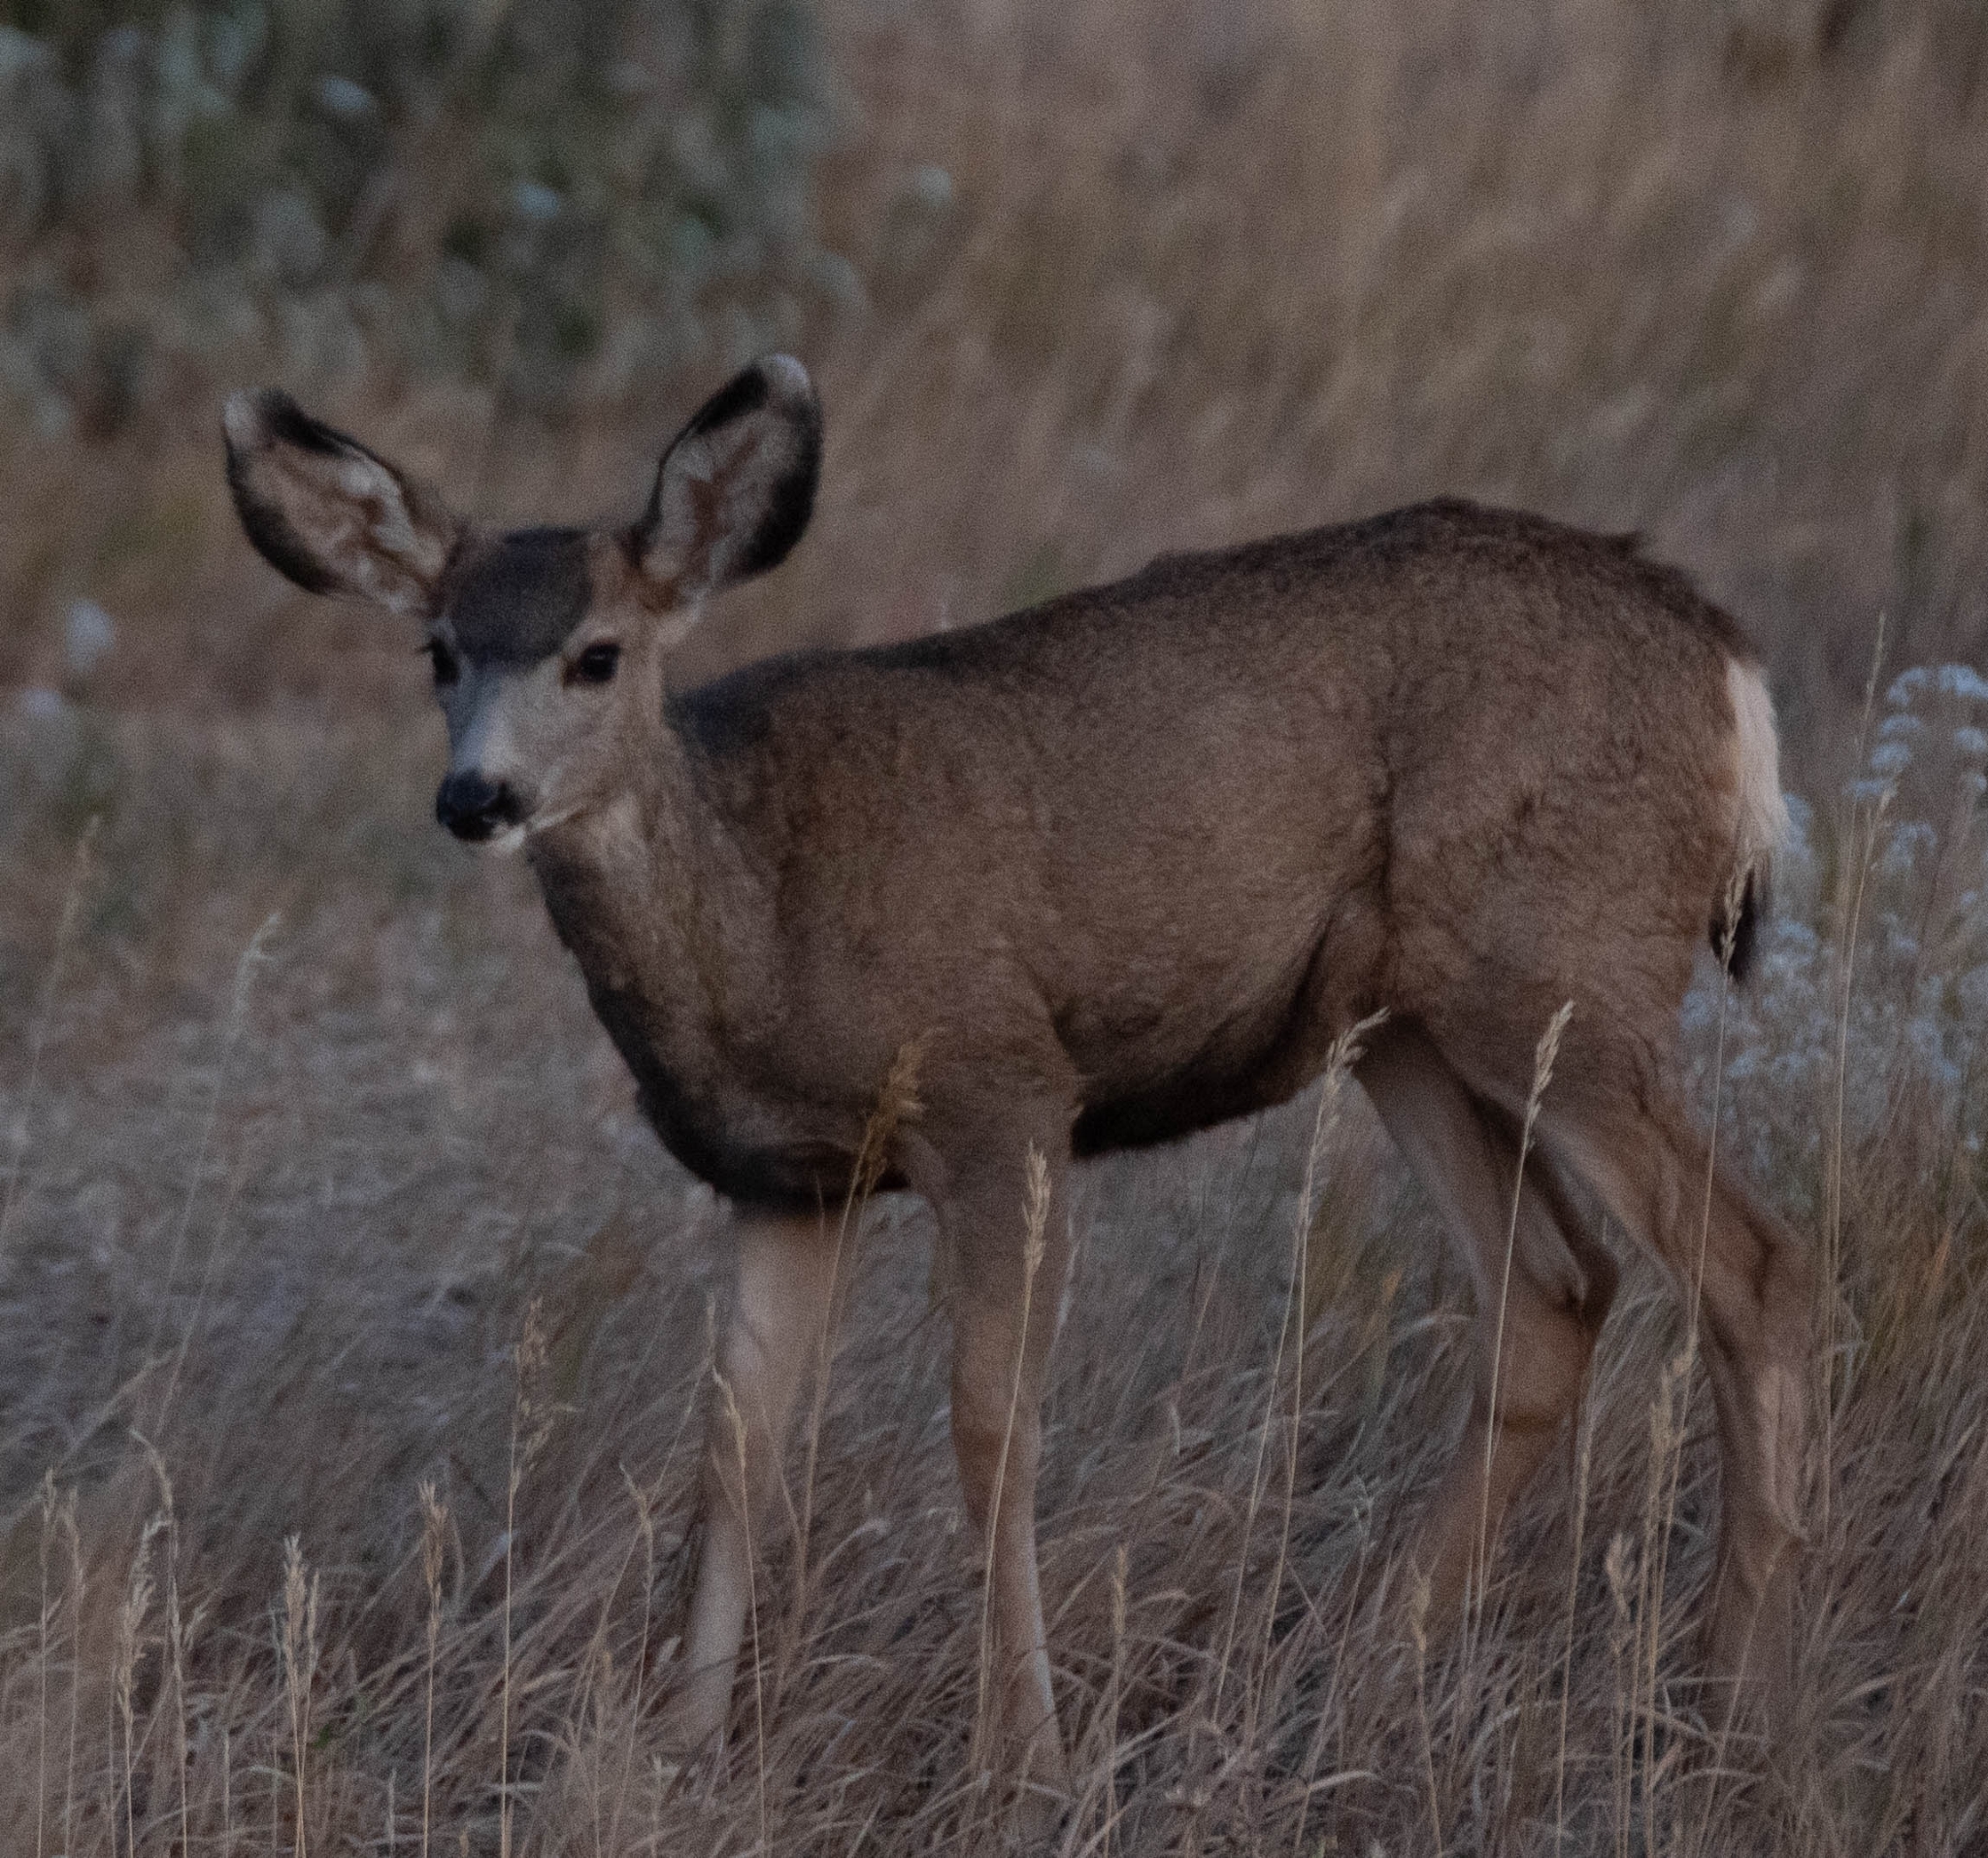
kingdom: Animalia
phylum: Chordata
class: Mammalia
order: Artiodactyla
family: Cervidae
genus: Odocoileus
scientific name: Odocoileus hemionus
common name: Mule deer
